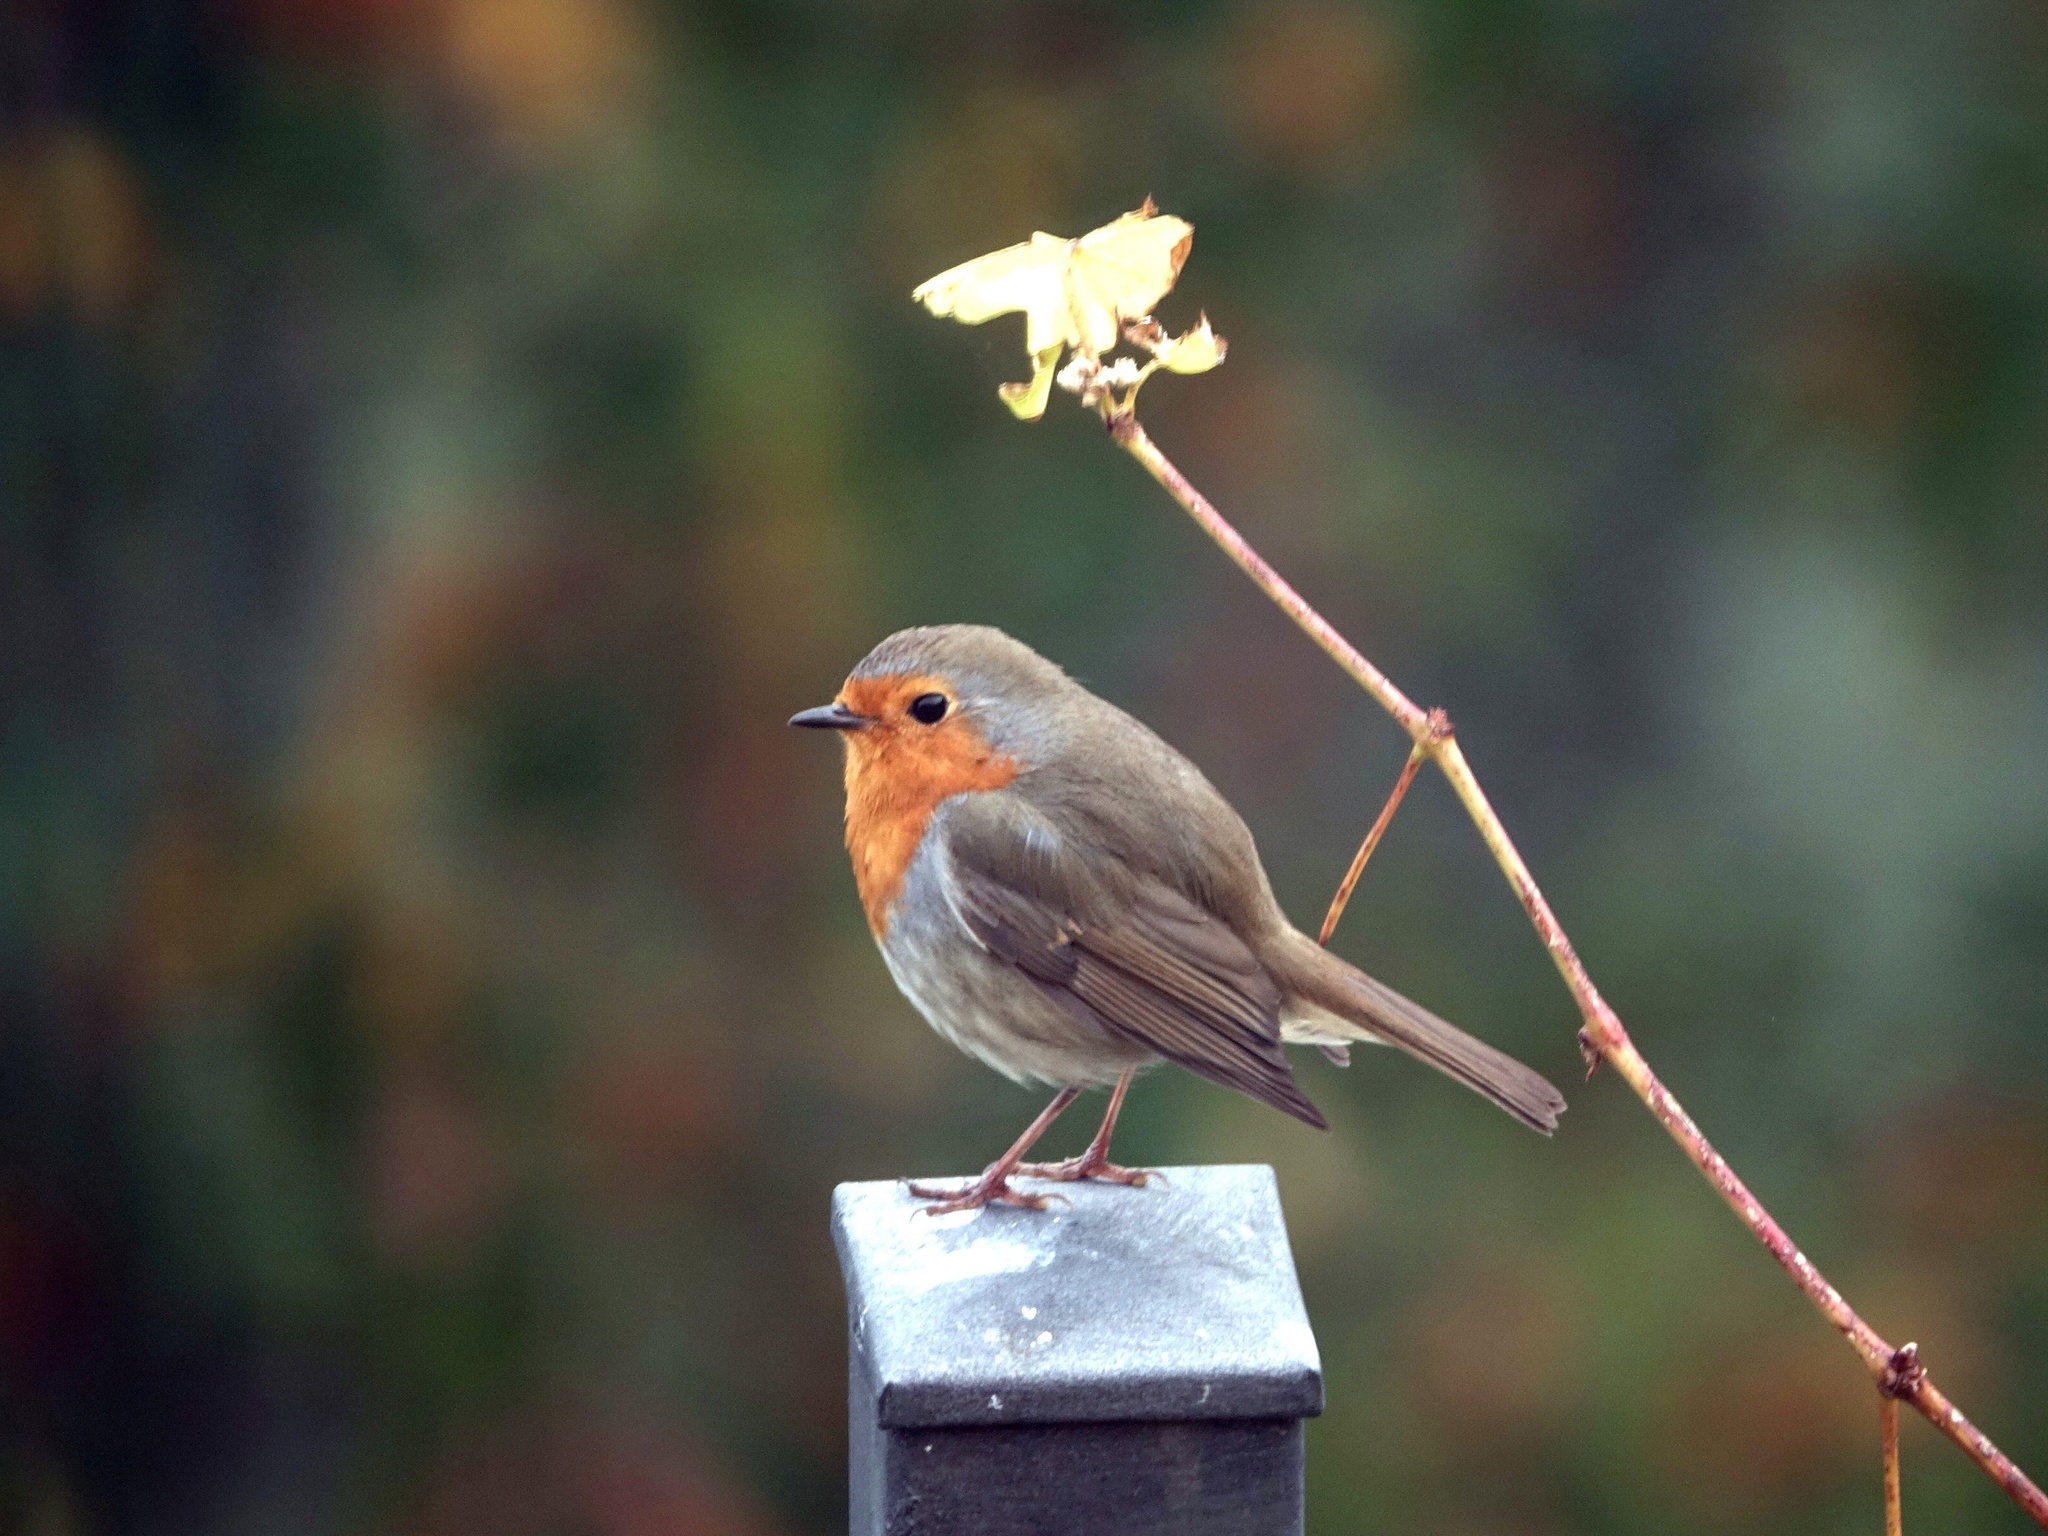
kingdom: Animalia
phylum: Chordata
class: Aves
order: Passeriformes
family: Muscicapidae
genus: Erithacus
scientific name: Erithacus rubecula
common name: European robin
